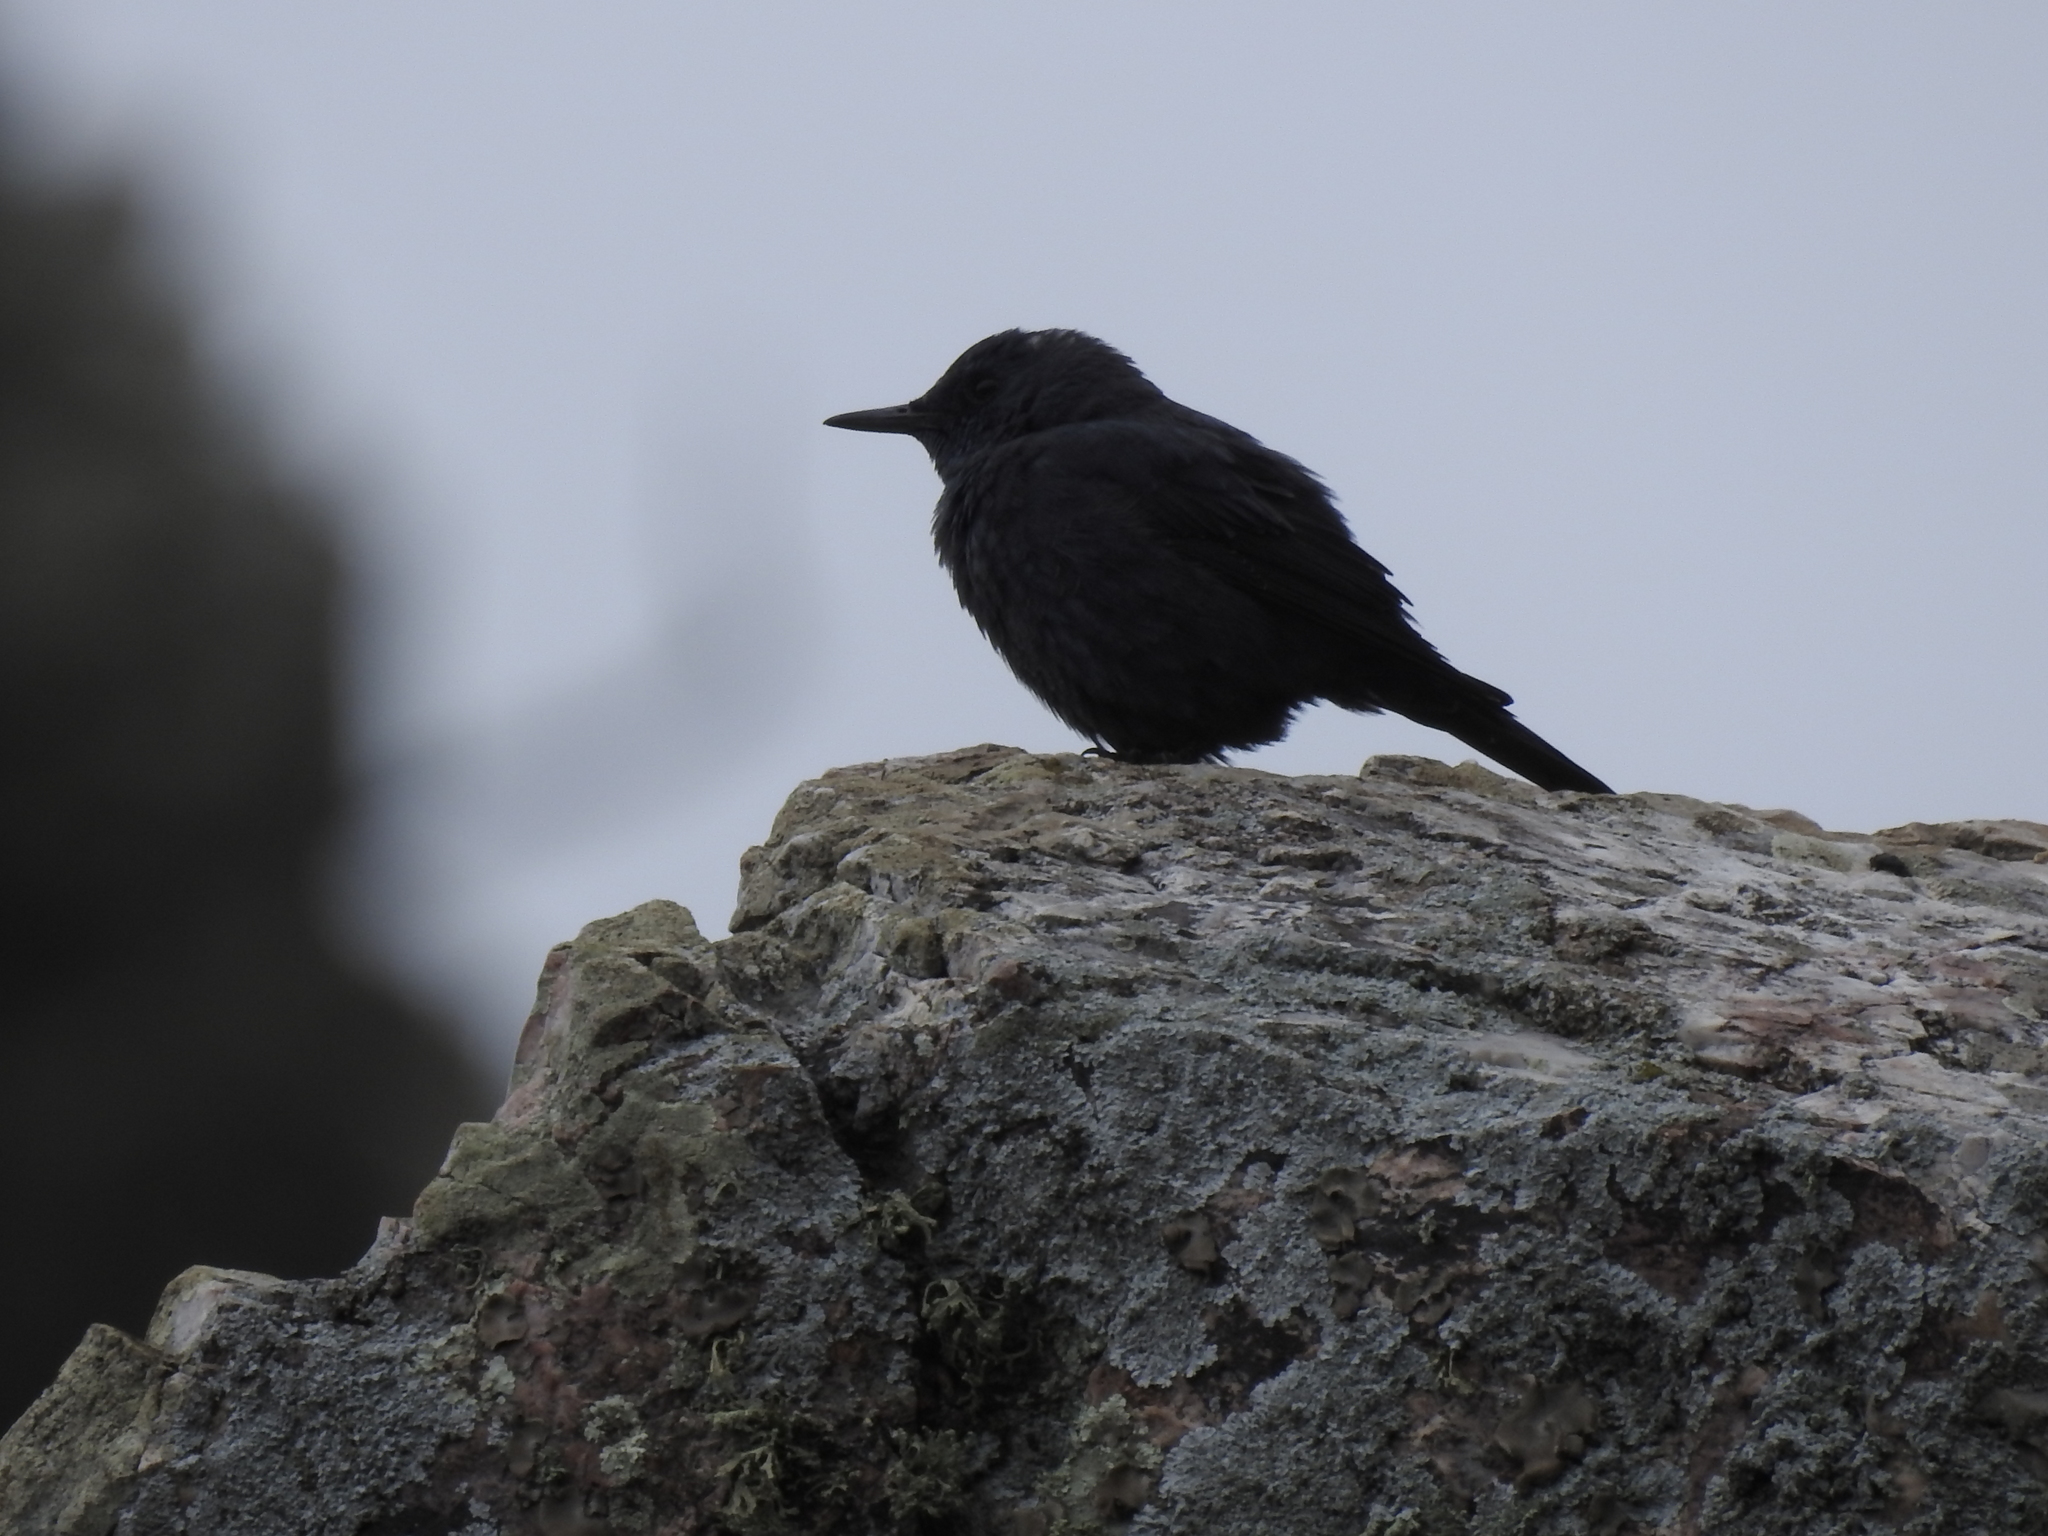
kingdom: Animalia
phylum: Chordata
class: Aves
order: Passeriformes
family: Muscicapidae
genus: Monticola
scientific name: Monticola solitarius
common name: Blue rock thrush
